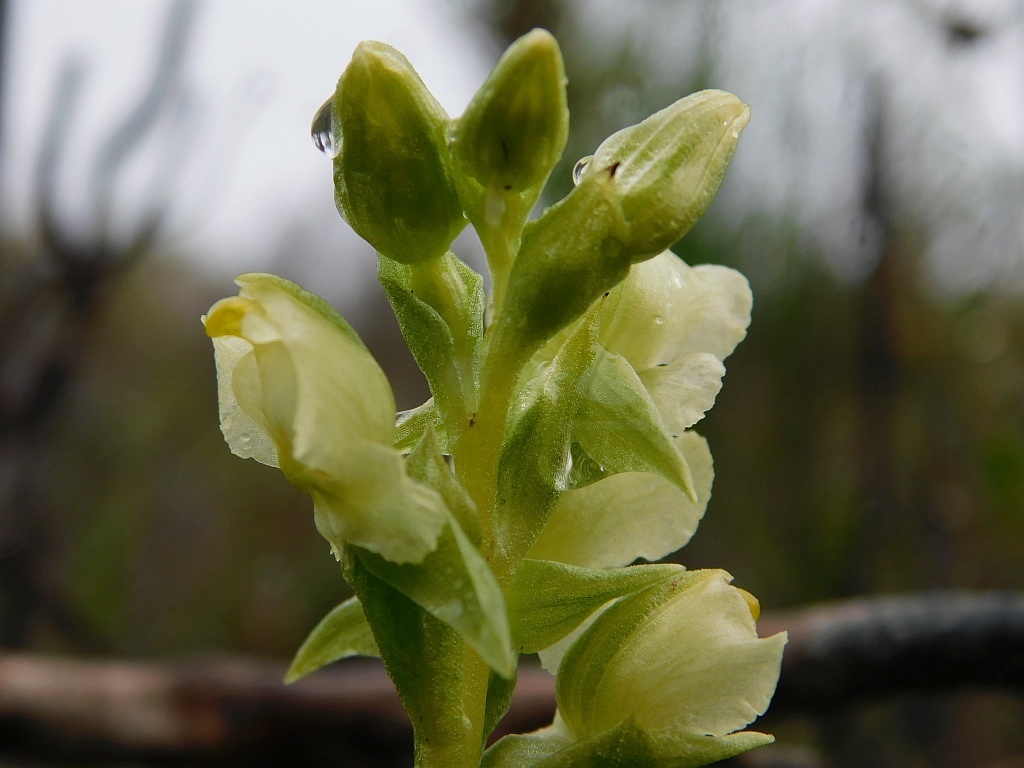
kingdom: Plantae
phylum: Tracheophyta
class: Liliopsida
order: Asparagales
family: Orchidaceae
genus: Pterygodium
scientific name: Pterygodium alatum
